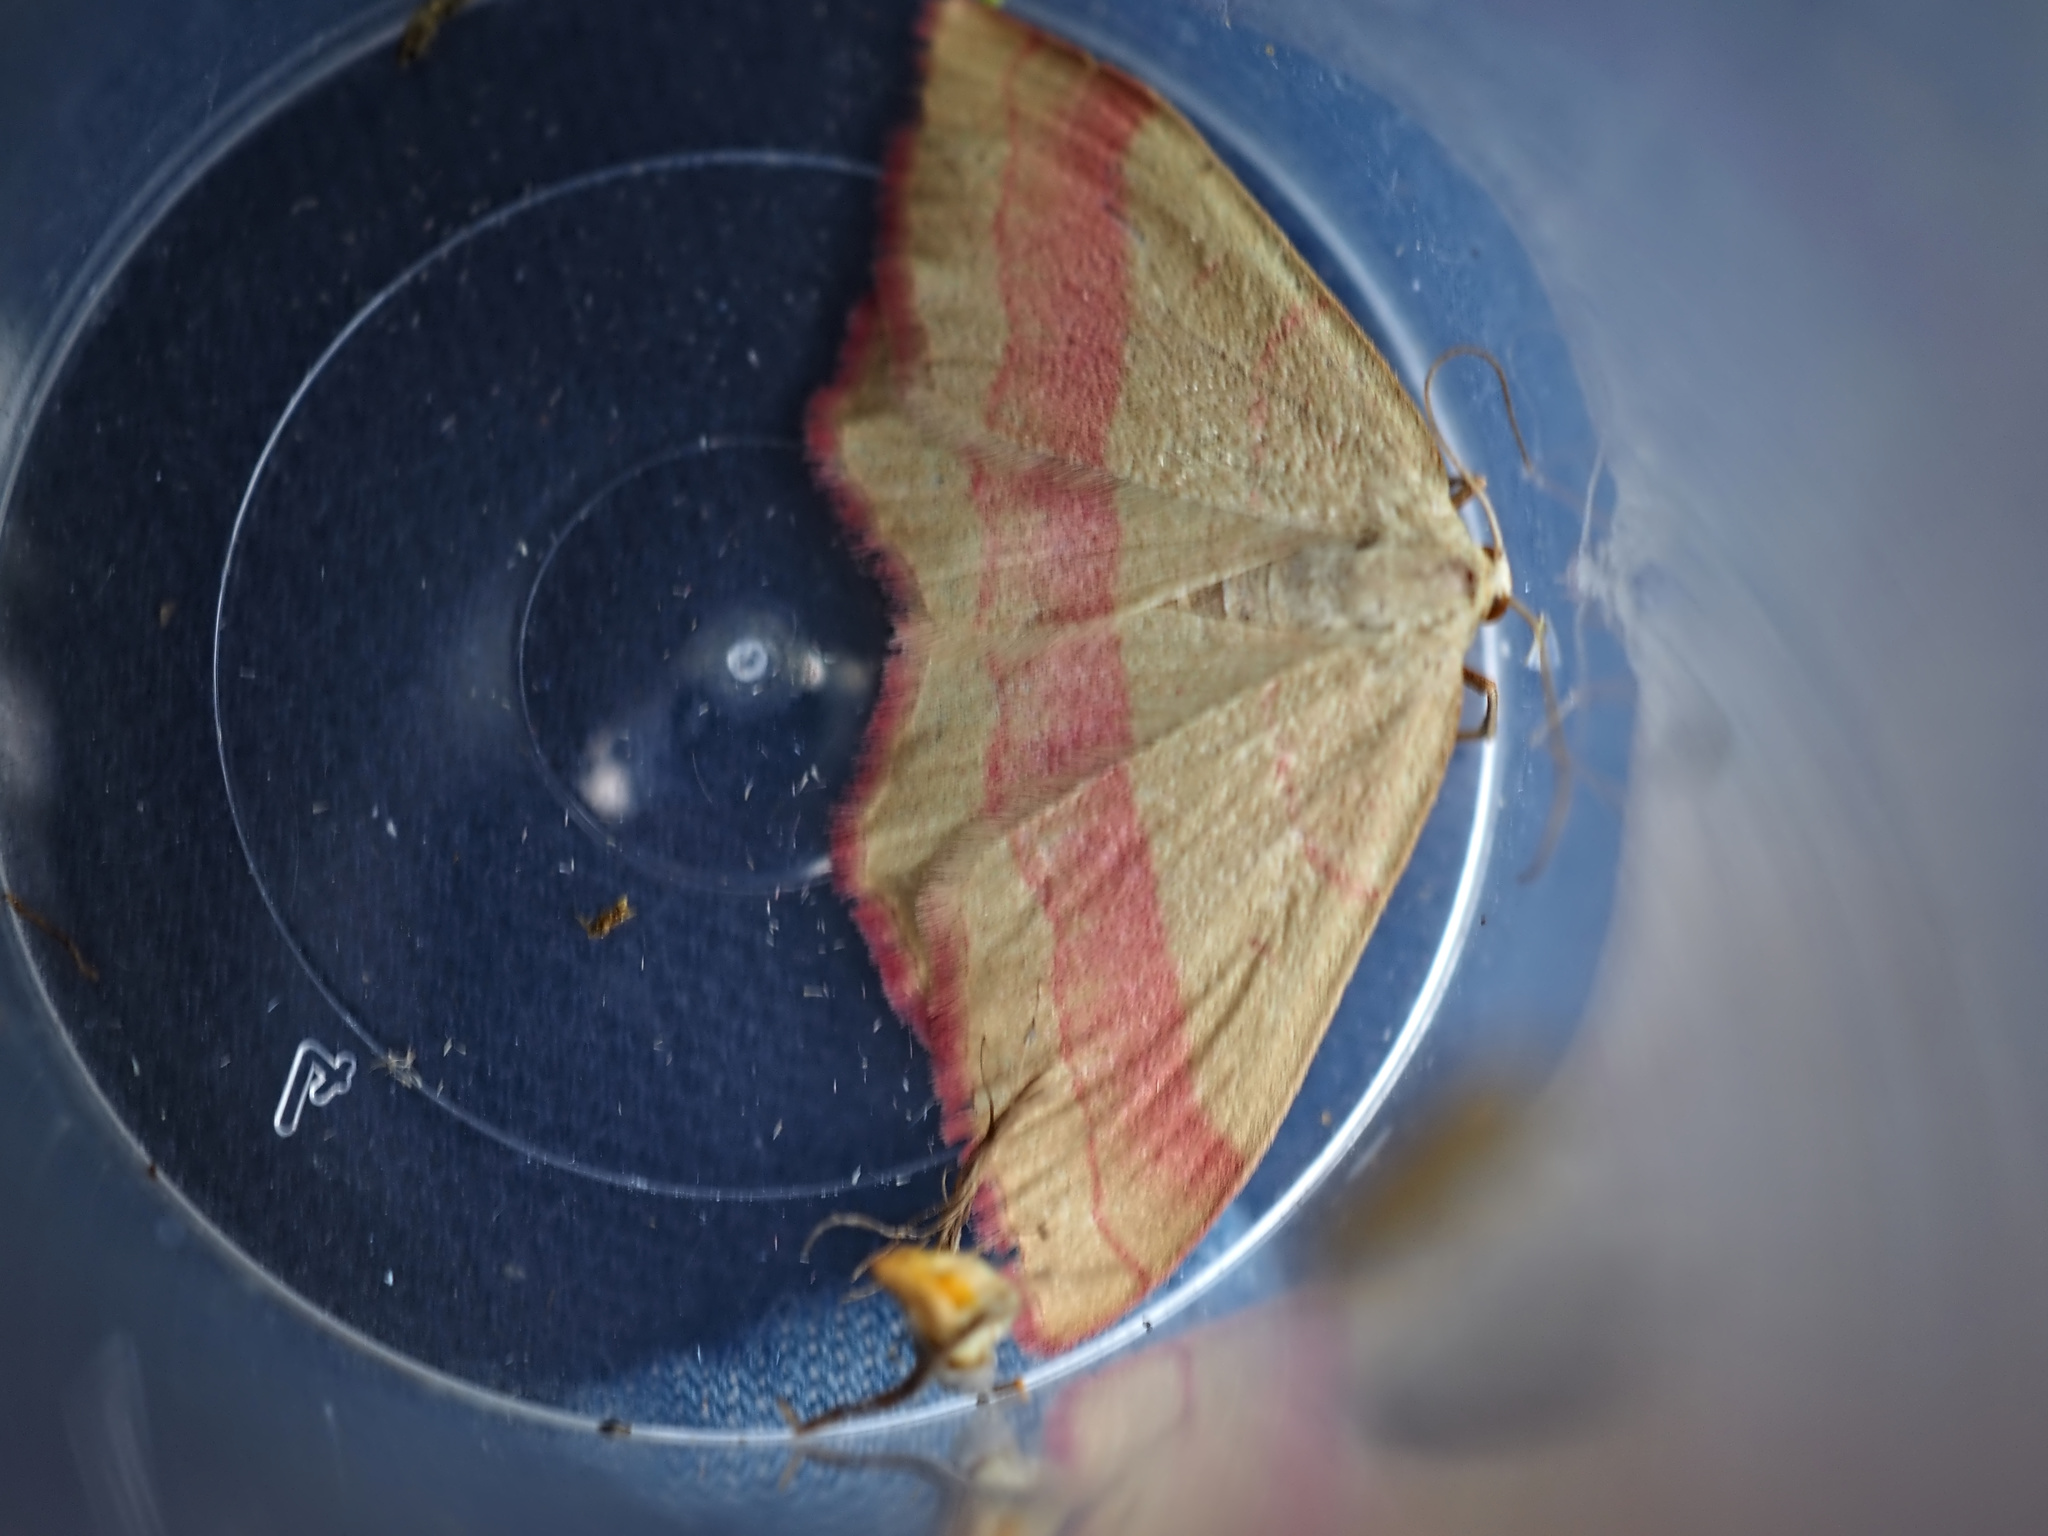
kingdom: Animalia
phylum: Arthropoda
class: Insecta
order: Lepidoptera
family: Geometridae
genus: Rhodostrophia
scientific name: Rhodostrophia vibicaria
